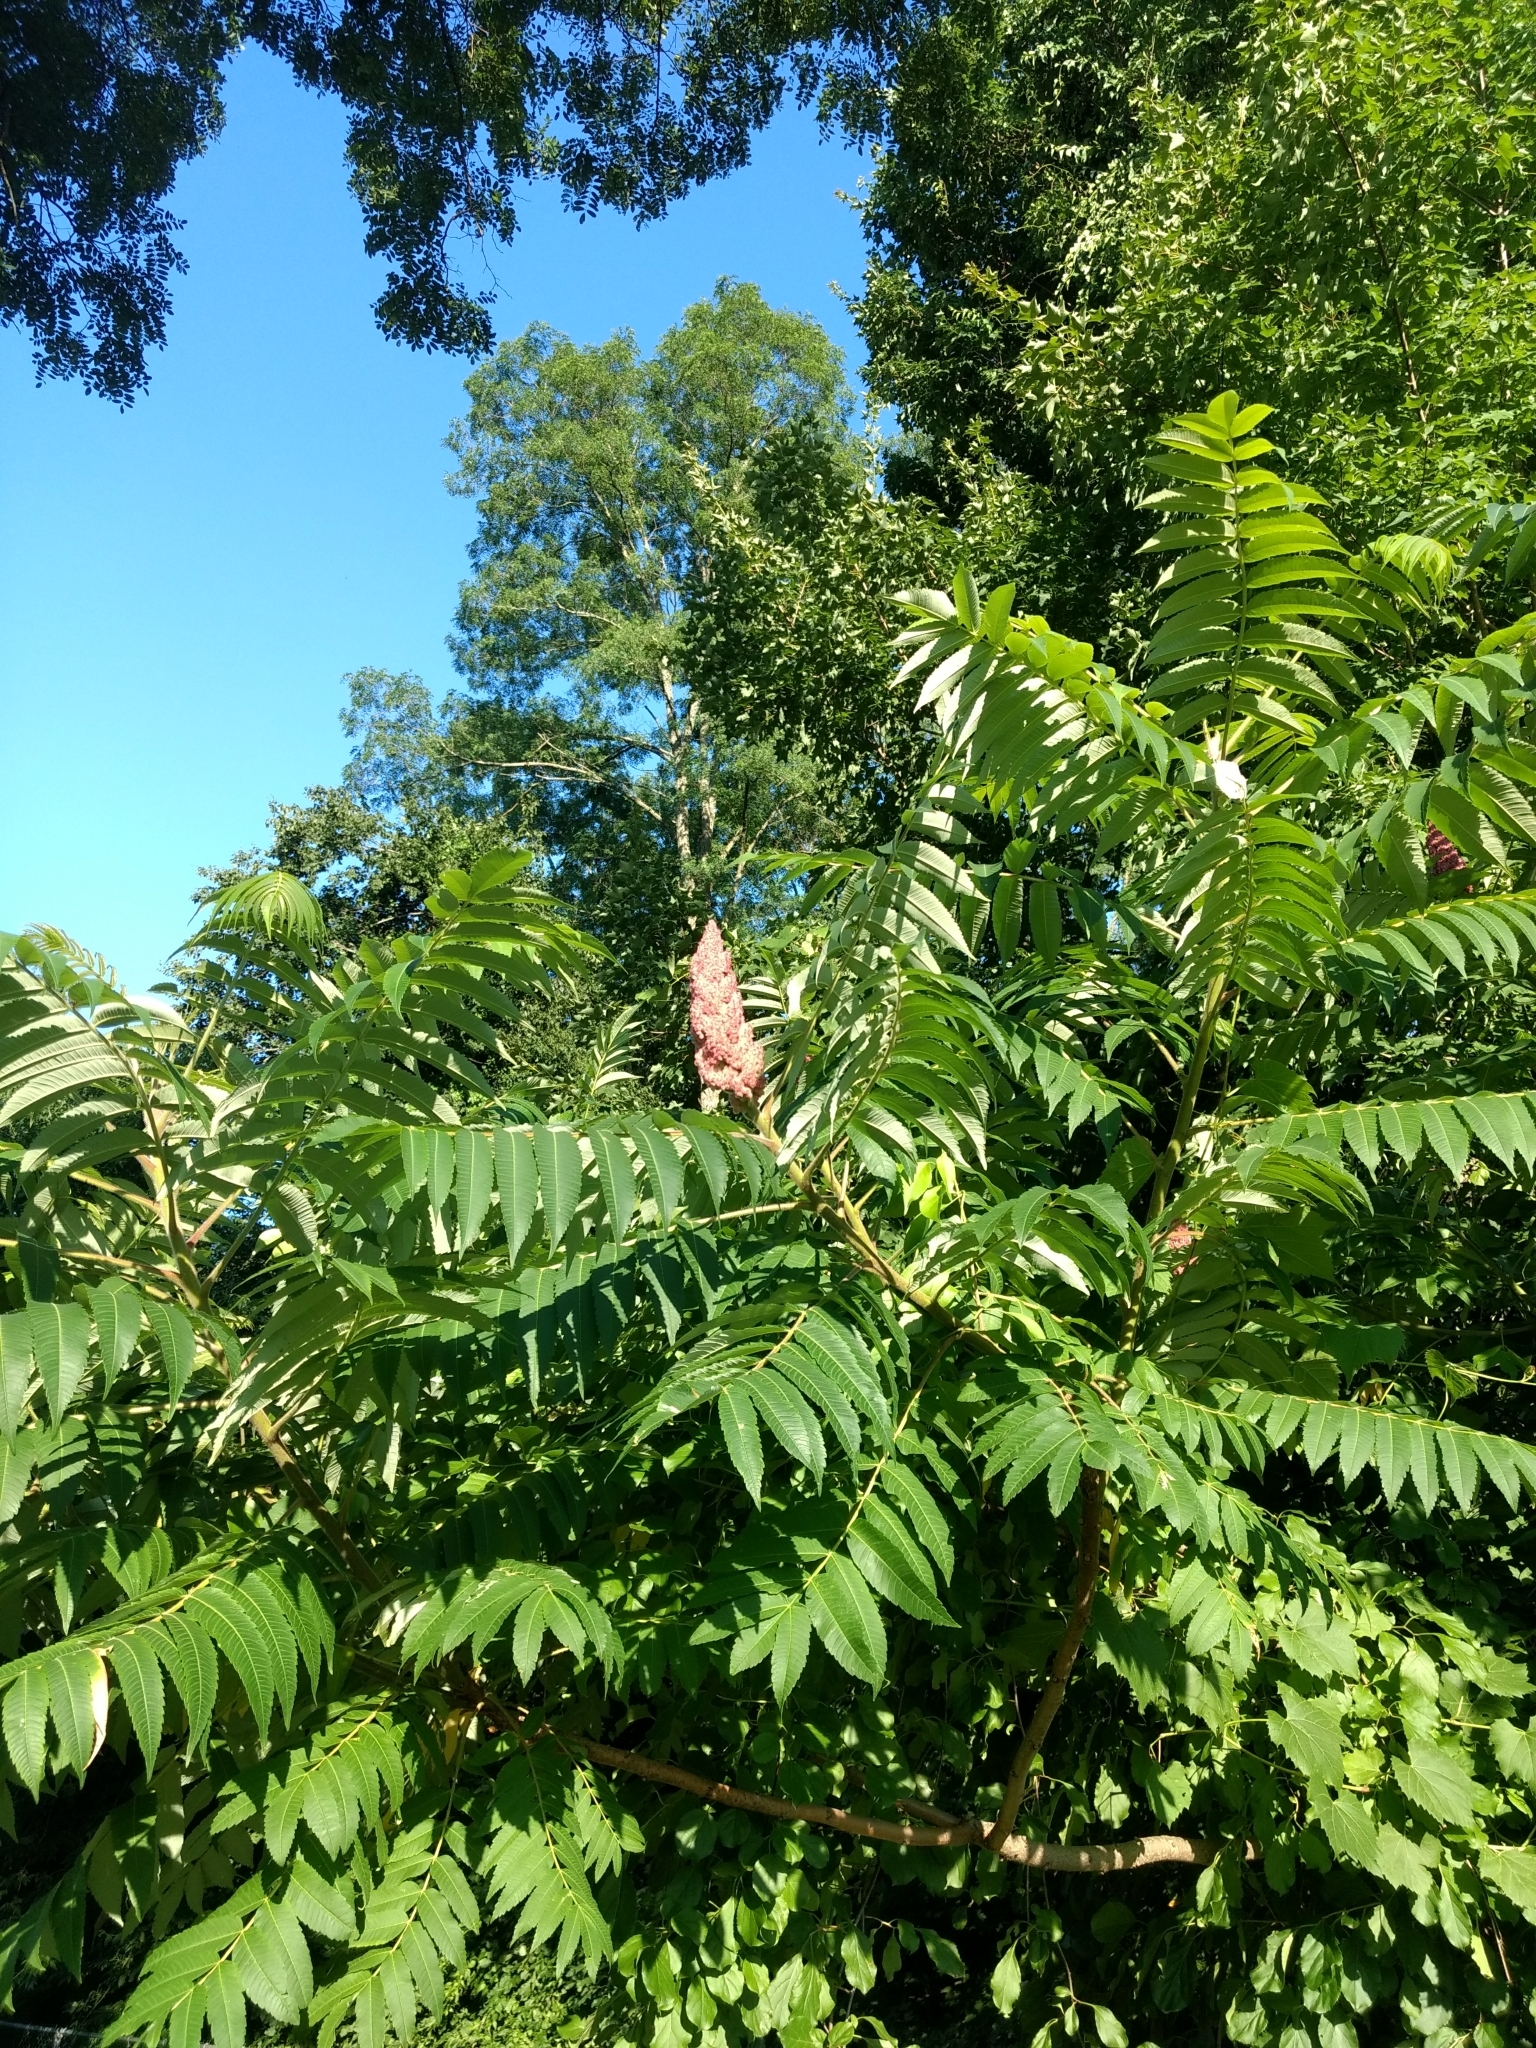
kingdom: Plantae
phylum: Tracheophyta
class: Magnoliopsida
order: Sapindales
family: Anacardiaceae
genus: Rhus
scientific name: Rhus typhina
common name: Staghorn sumac
